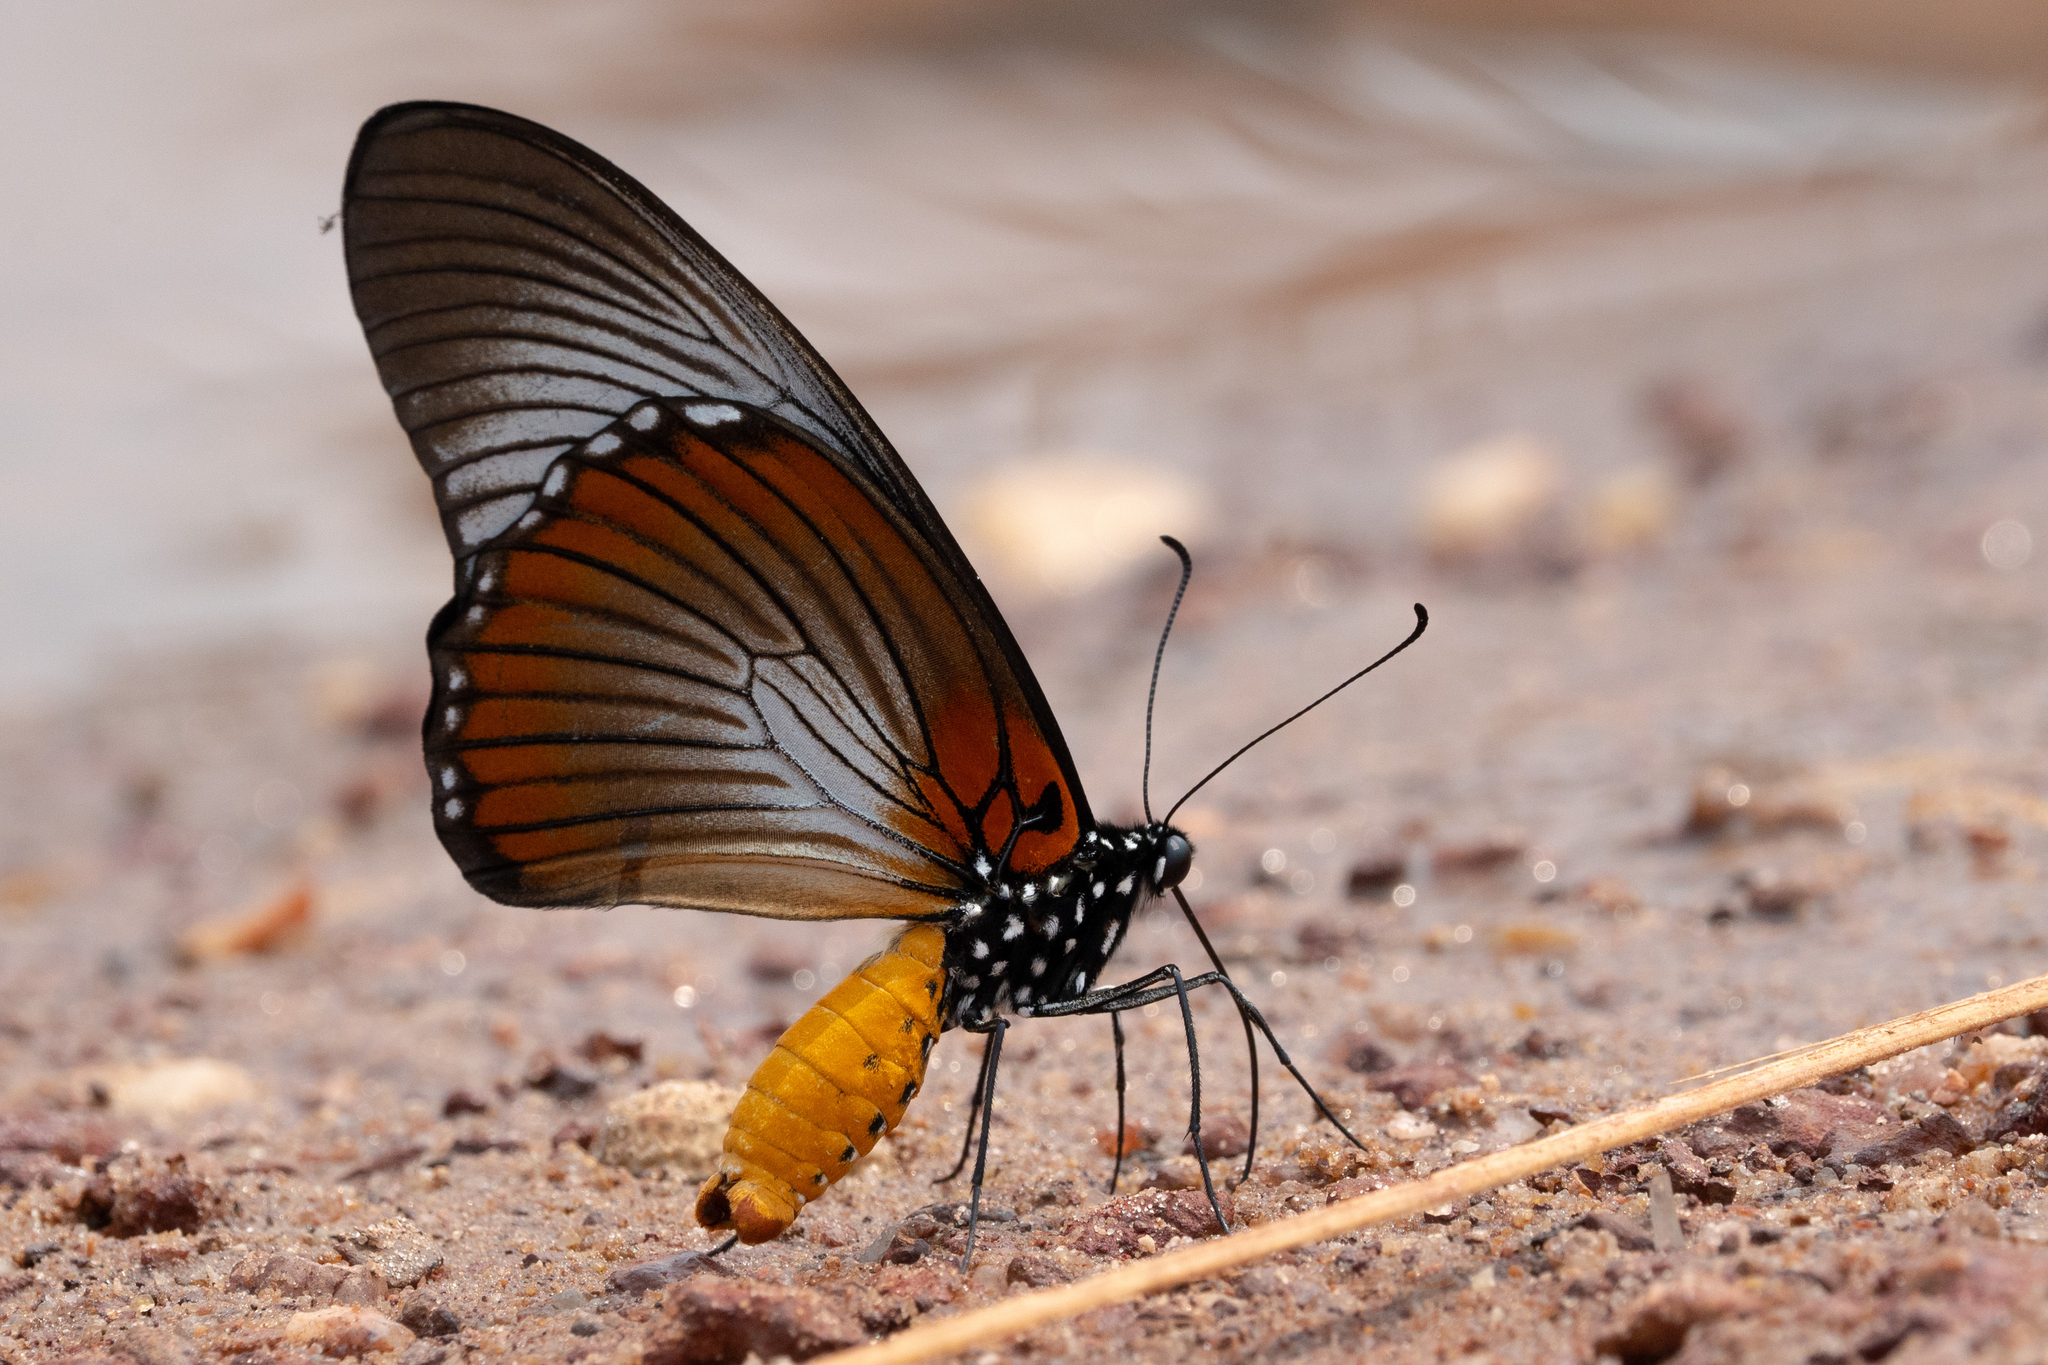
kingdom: Animalia
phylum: Arthropoda
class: Insecta
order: Lepidoptera
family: Papilionidae
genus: Papilio
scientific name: Papilio zalmoxis
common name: Giant blue swallowtail
